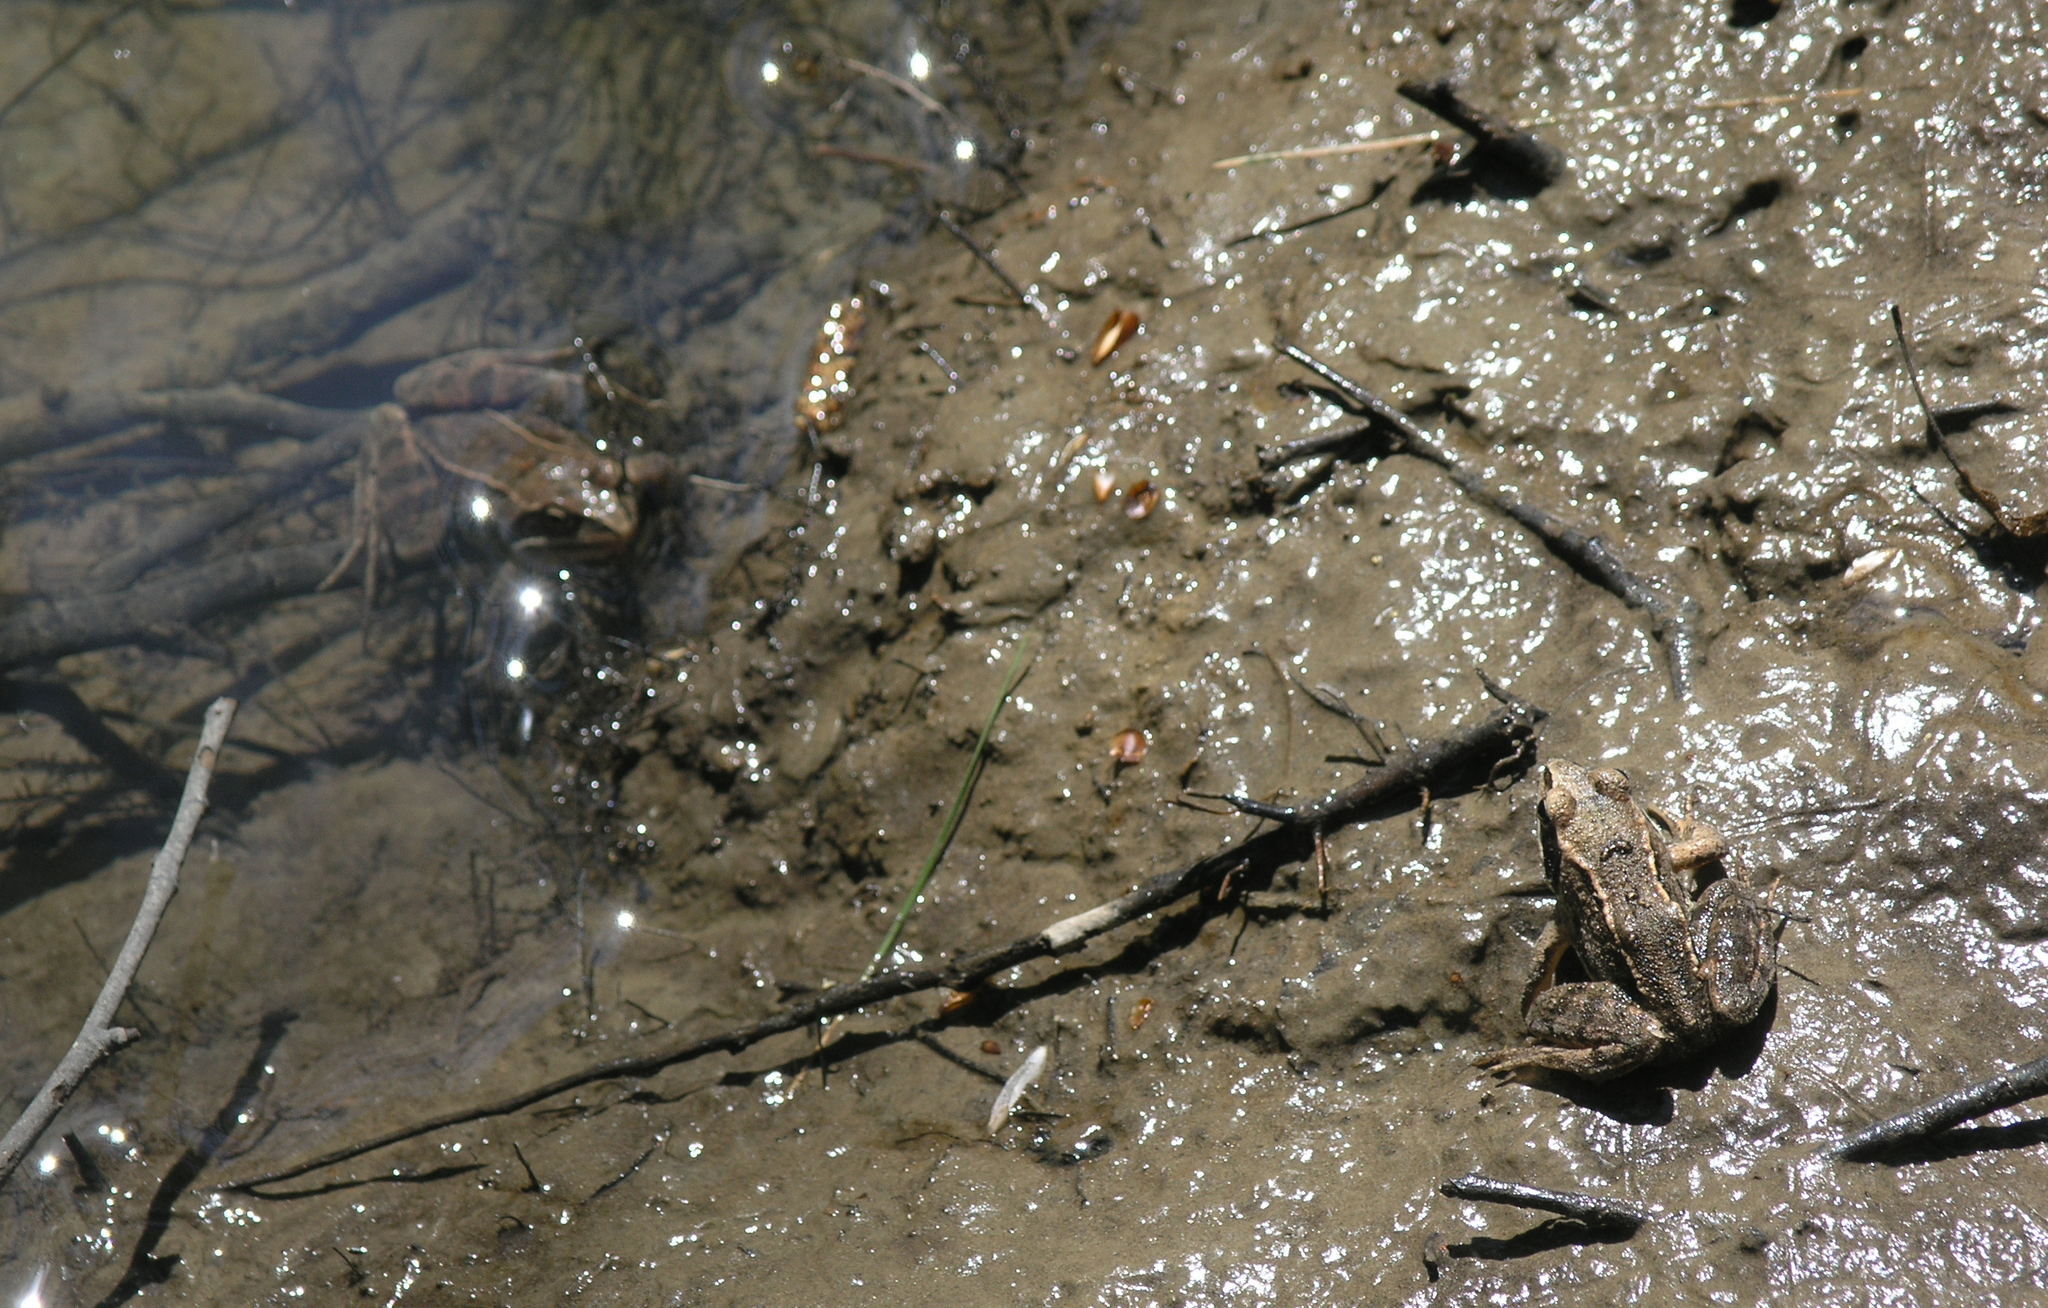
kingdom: Animalia
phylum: Chordata
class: Amphibia
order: Anura
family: Ranidae
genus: Rana
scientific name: Rana arvalis
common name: Moor frog
